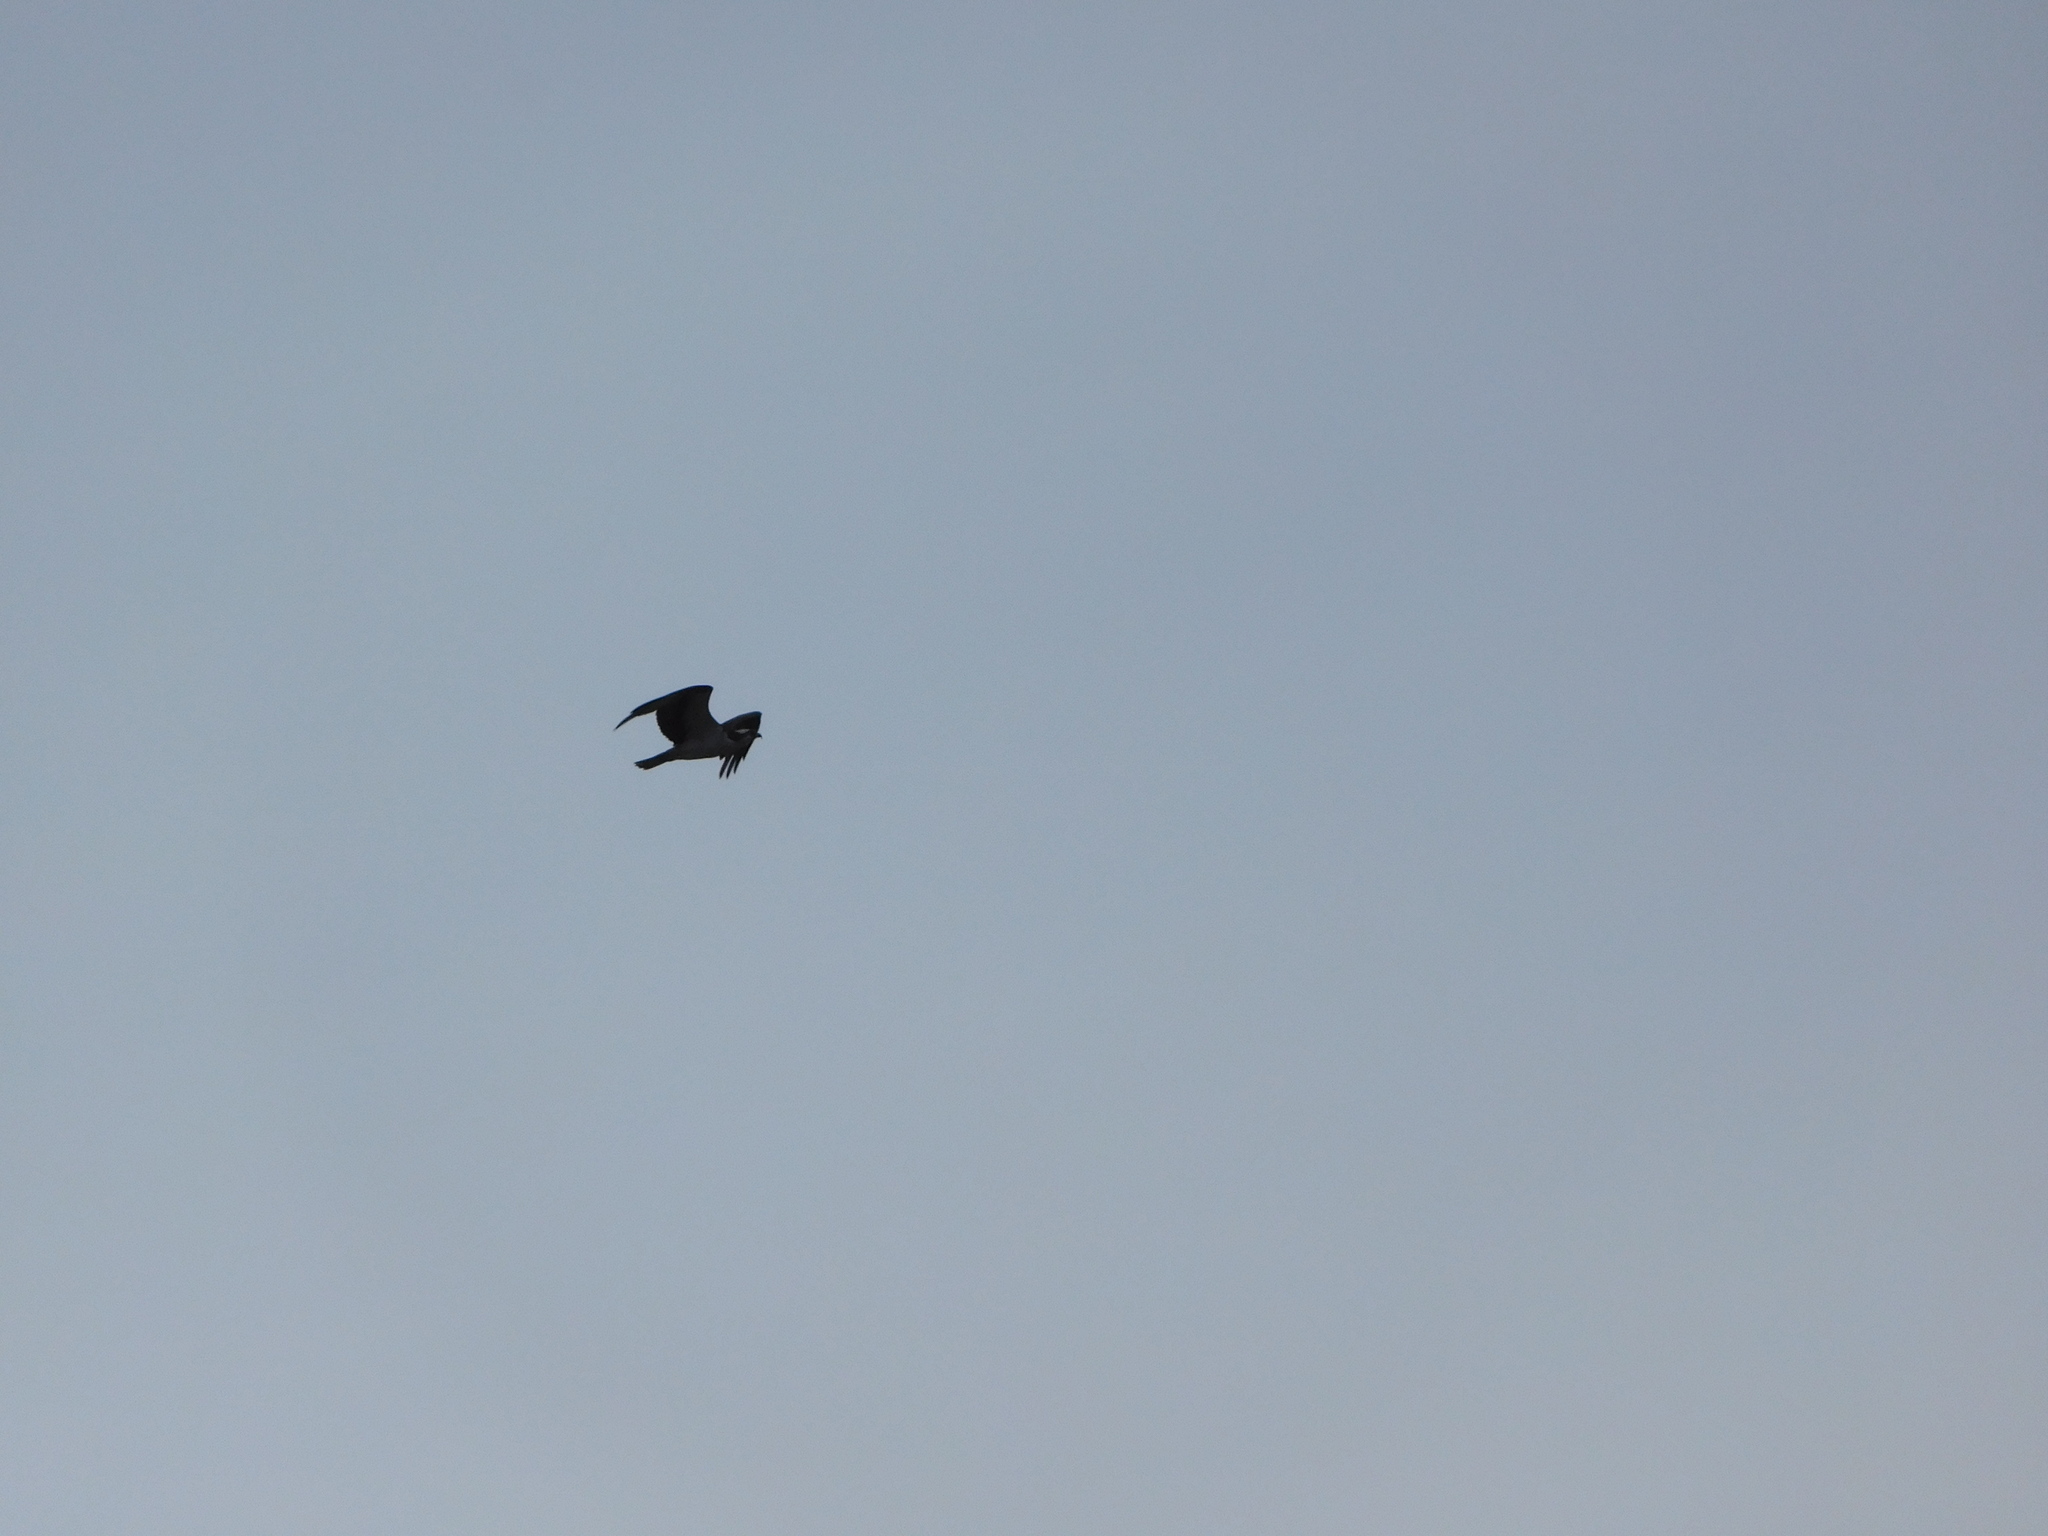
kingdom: Animalia
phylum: Chordata
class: Aves
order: Accipitriformes
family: Pandionidae
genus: Pandion
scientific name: Pandion haliaetus
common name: Osprey
